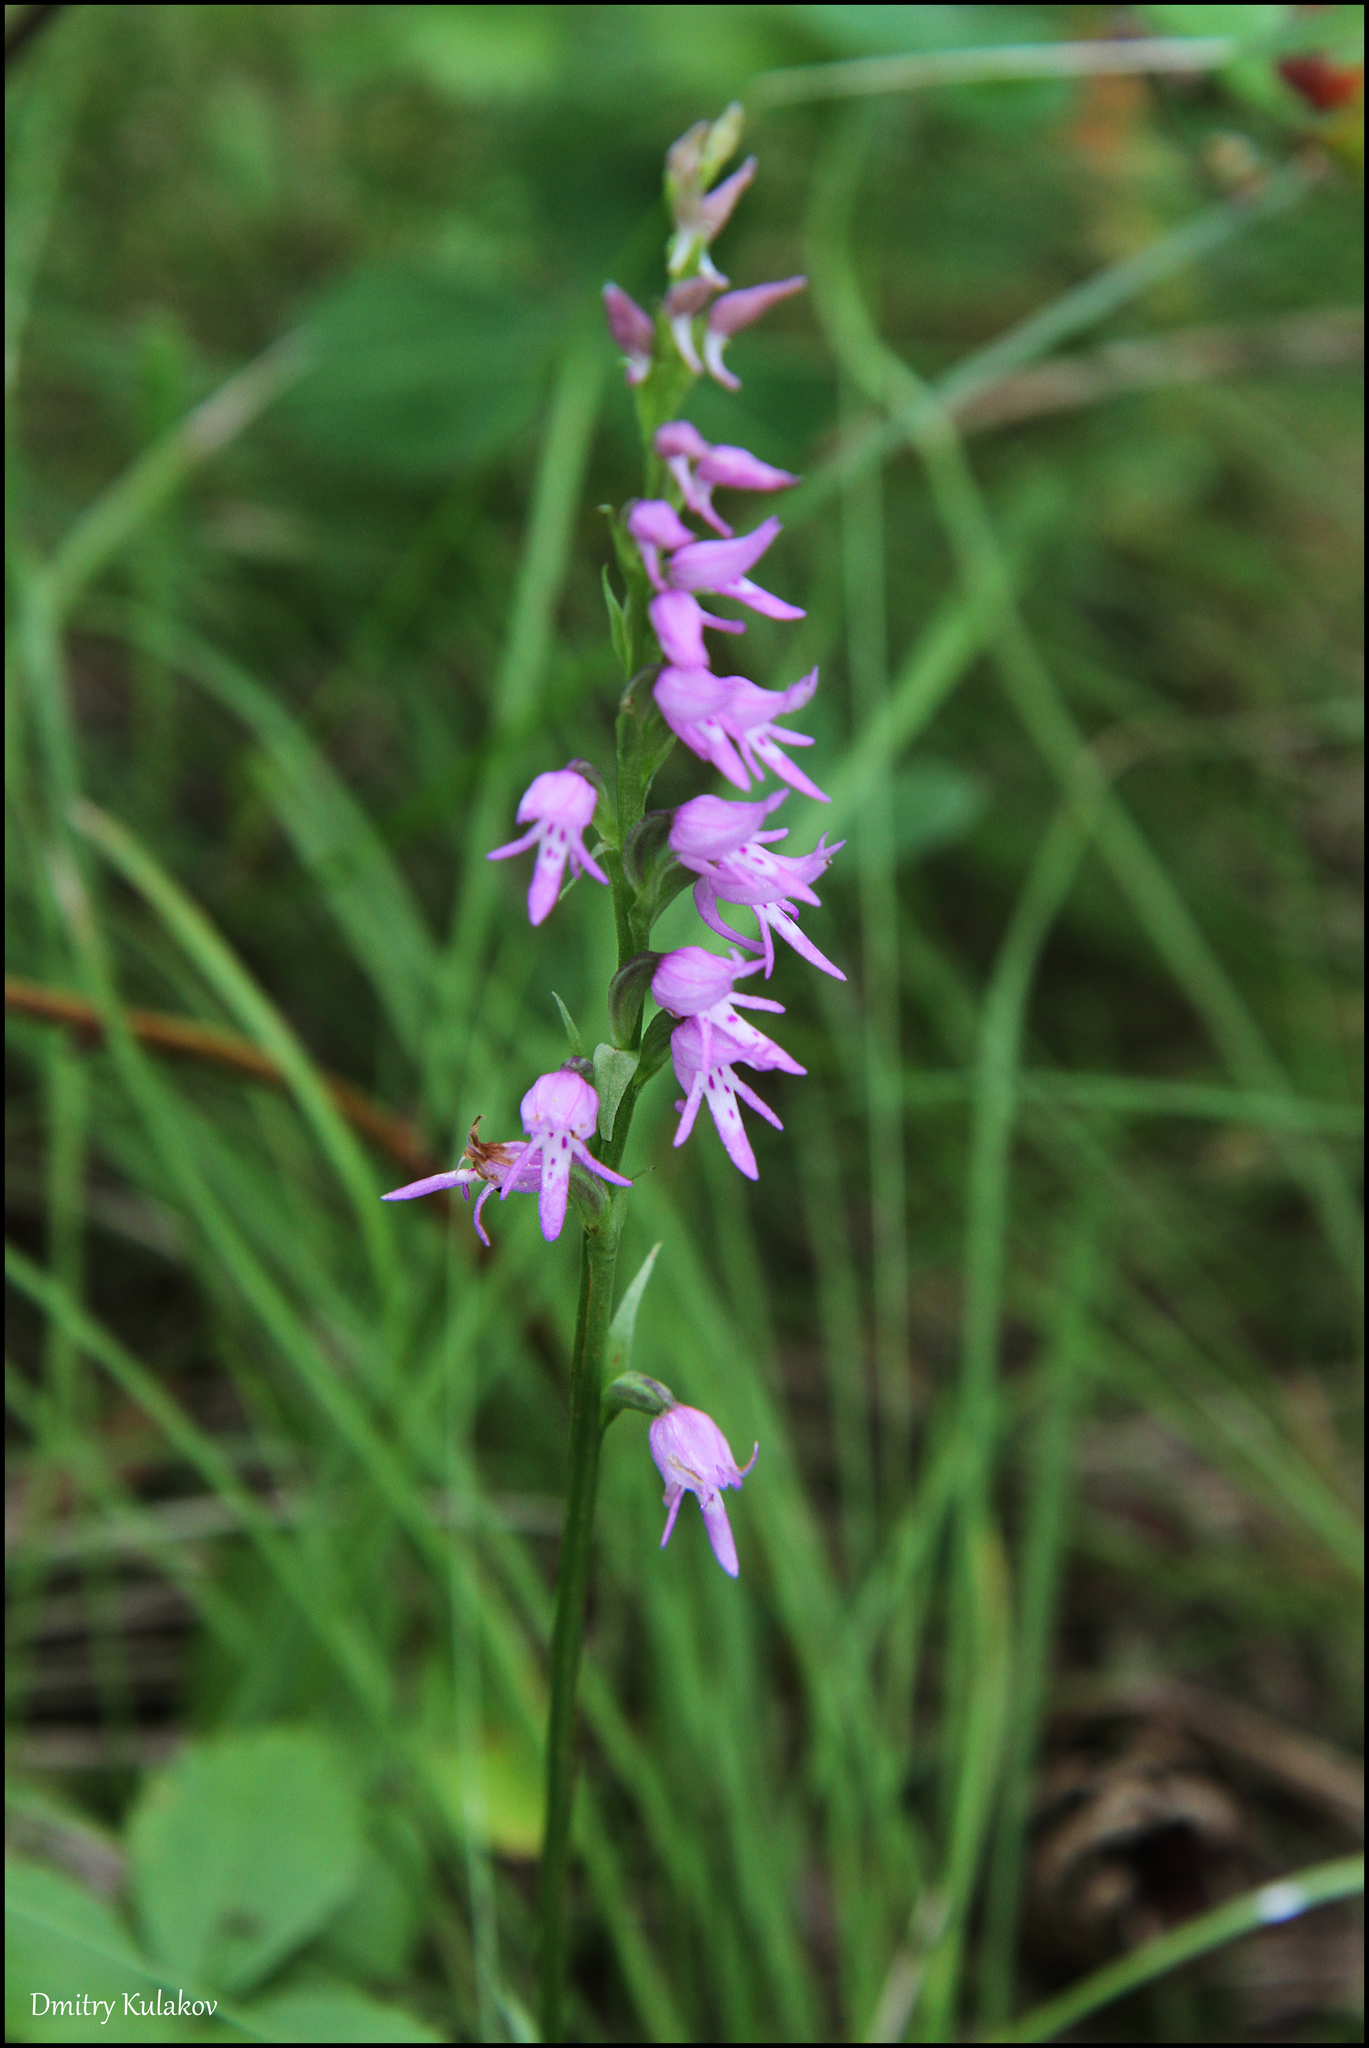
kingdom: Plantae
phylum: Tracheophyta
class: Liliopsida
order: Asparagales
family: Orchidaceae
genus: Hemipilia
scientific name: Hemipilia cucullata
